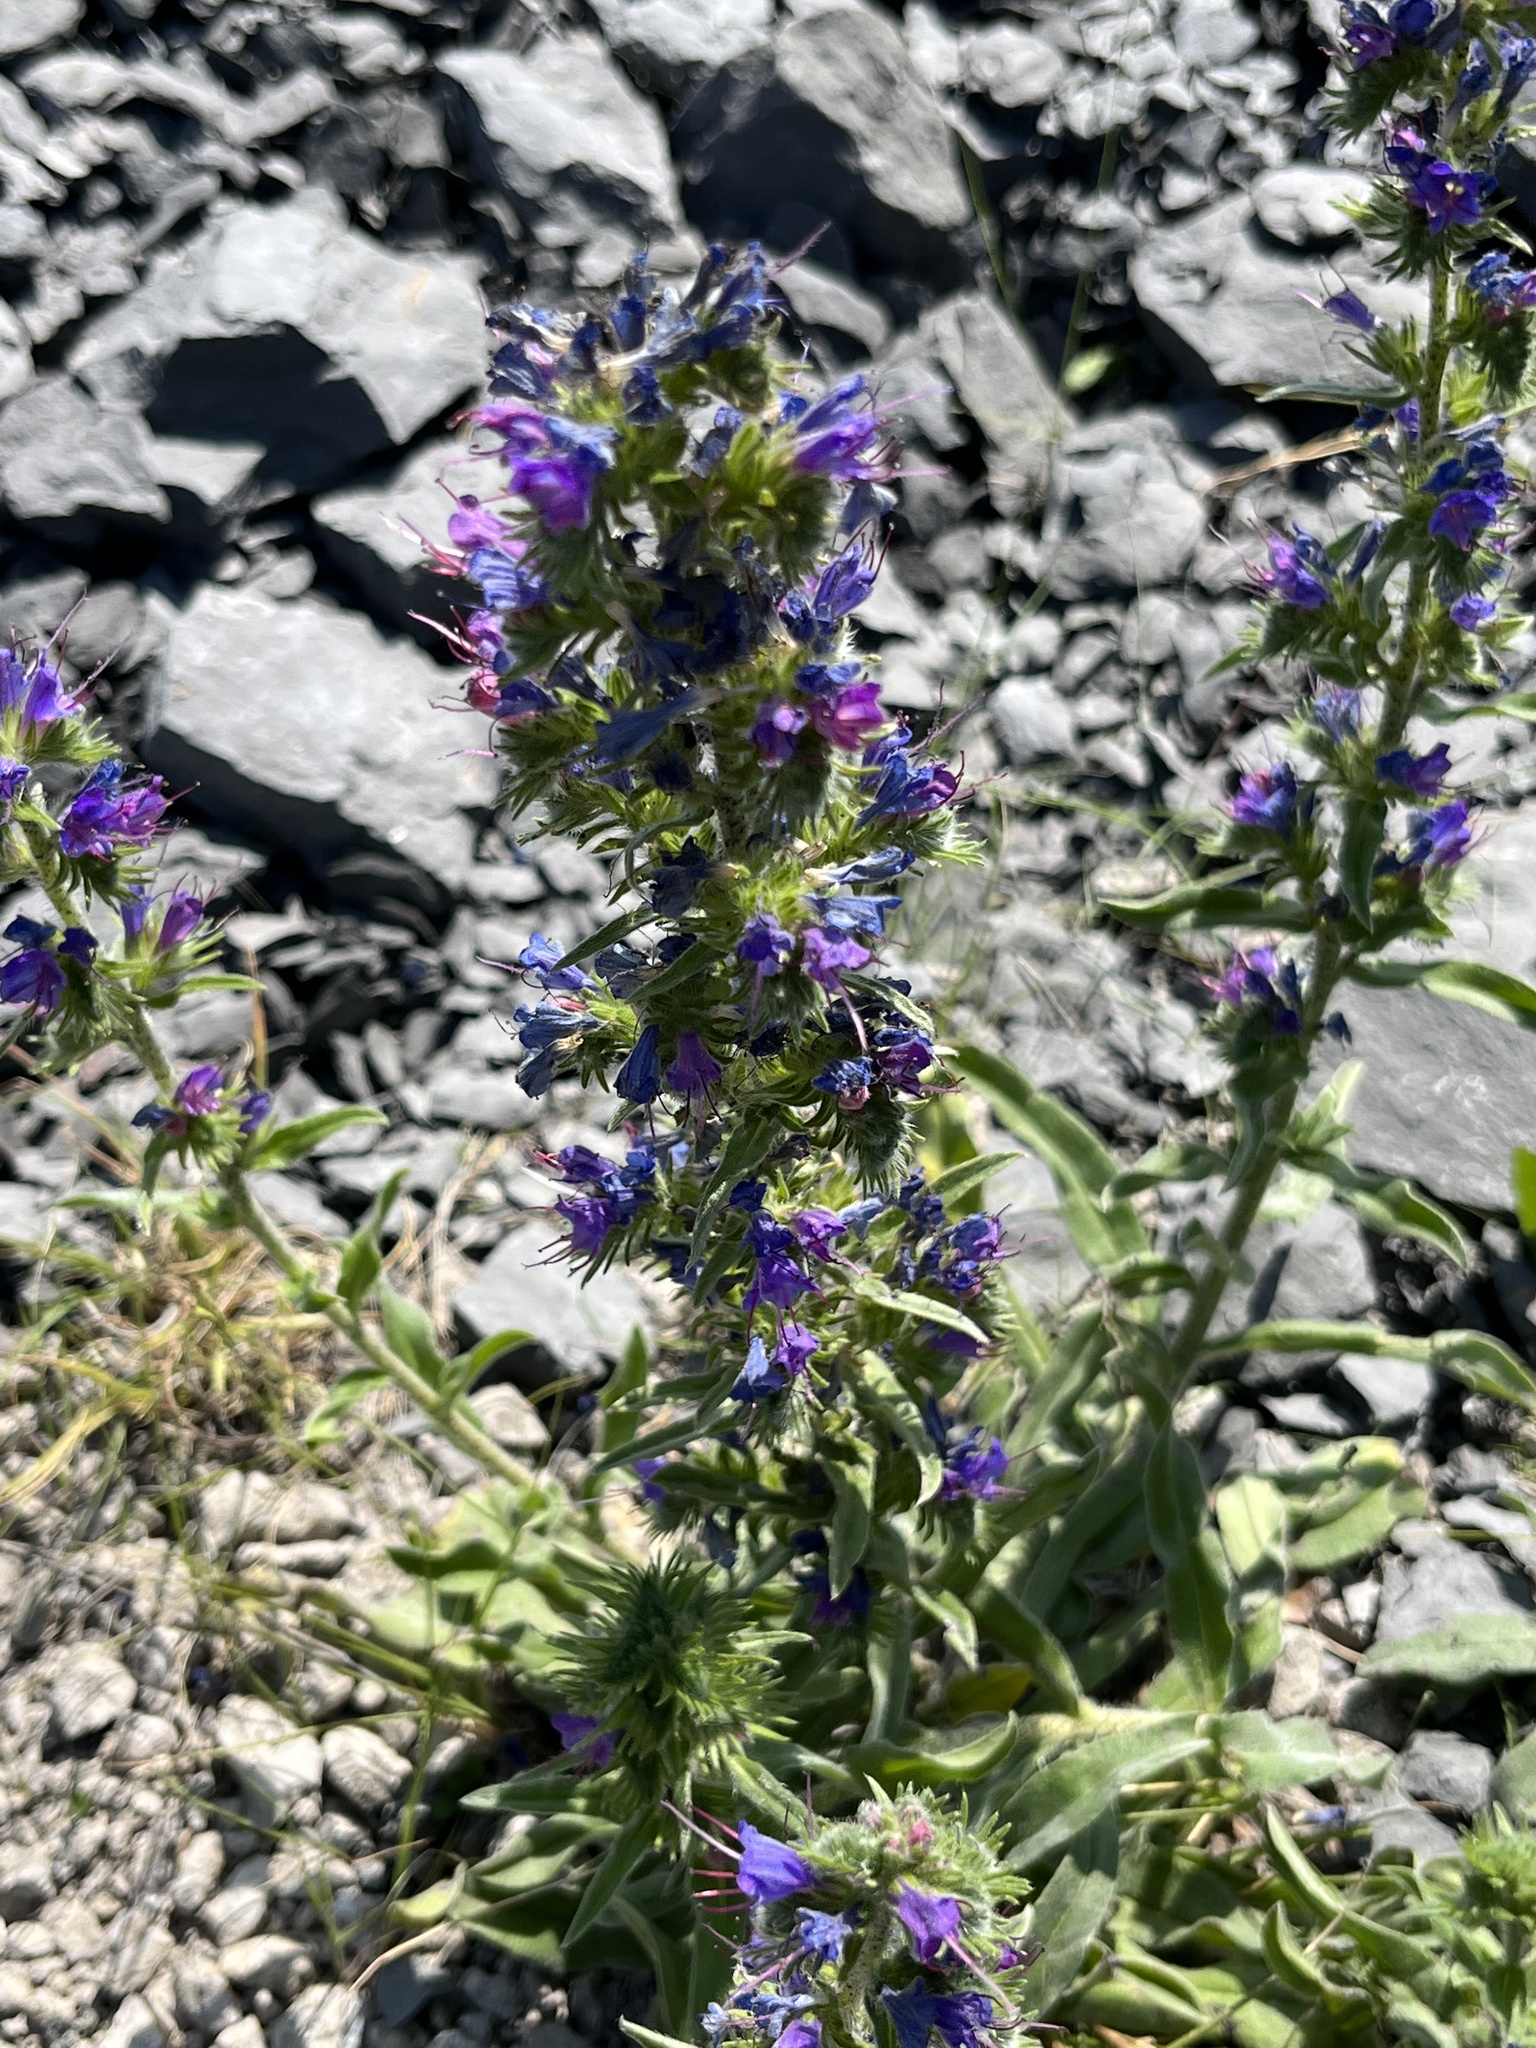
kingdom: Plantae
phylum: Tracheophyta
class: Magnoliopsida
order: Boraginales
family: Boraginaceae
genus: Echium
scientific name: Echium vulgare
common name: Common viper's bugloss
